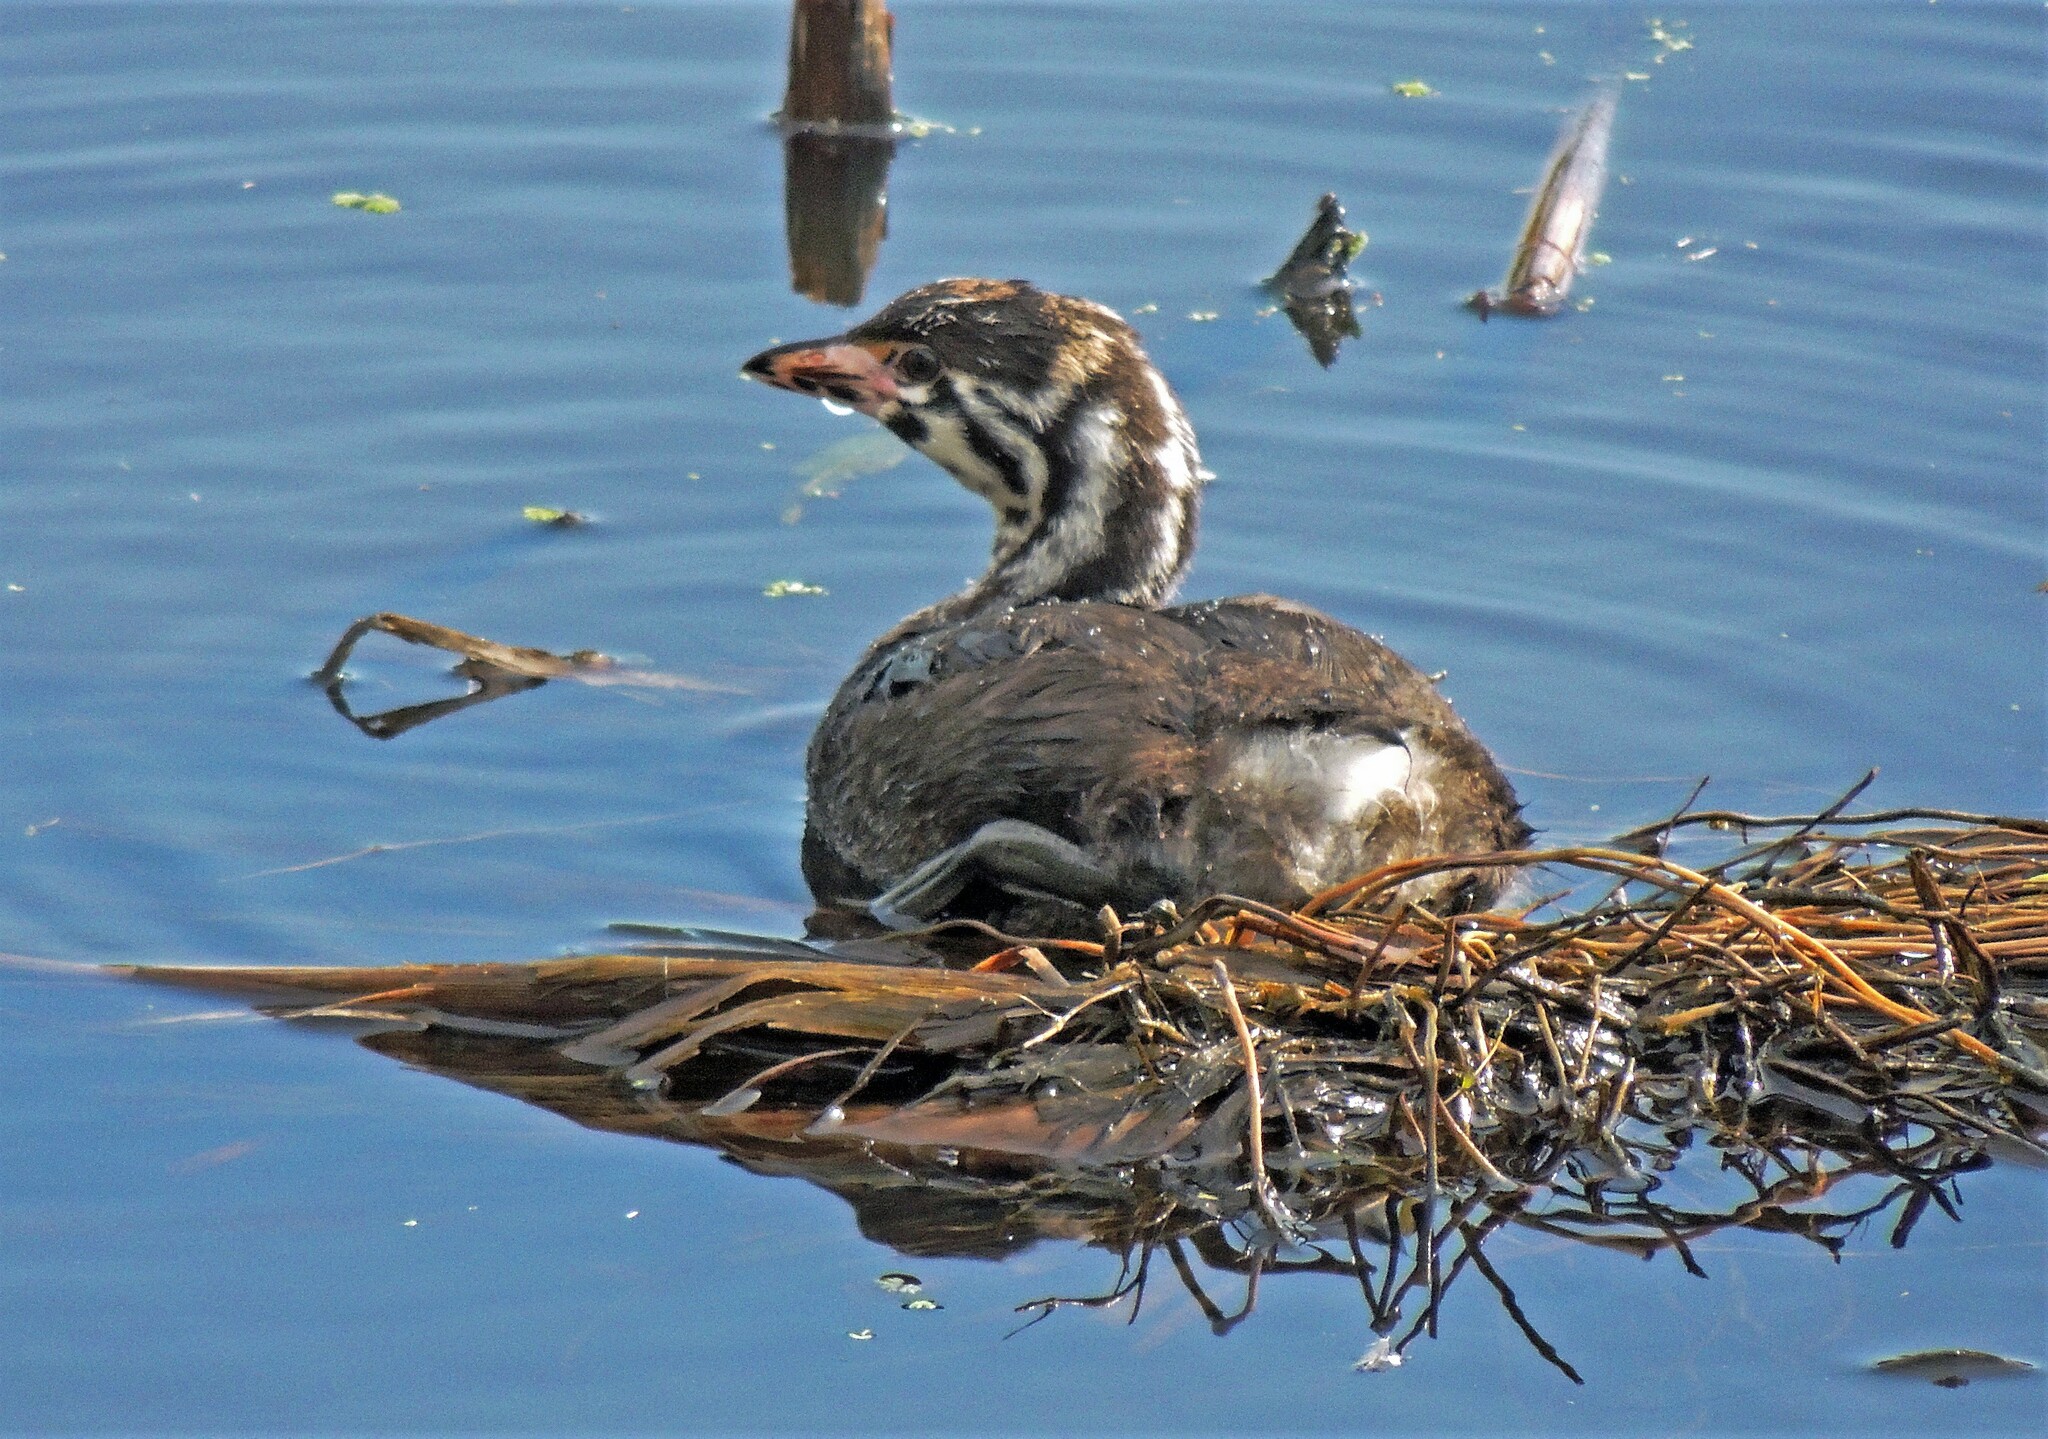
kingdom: Animalia
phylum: Chordata
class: Aves
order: Podicipediformes
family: Podicipedidae
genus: Podilymbus
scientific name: Podilymbus podiceps
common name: Pied-billed grebe
